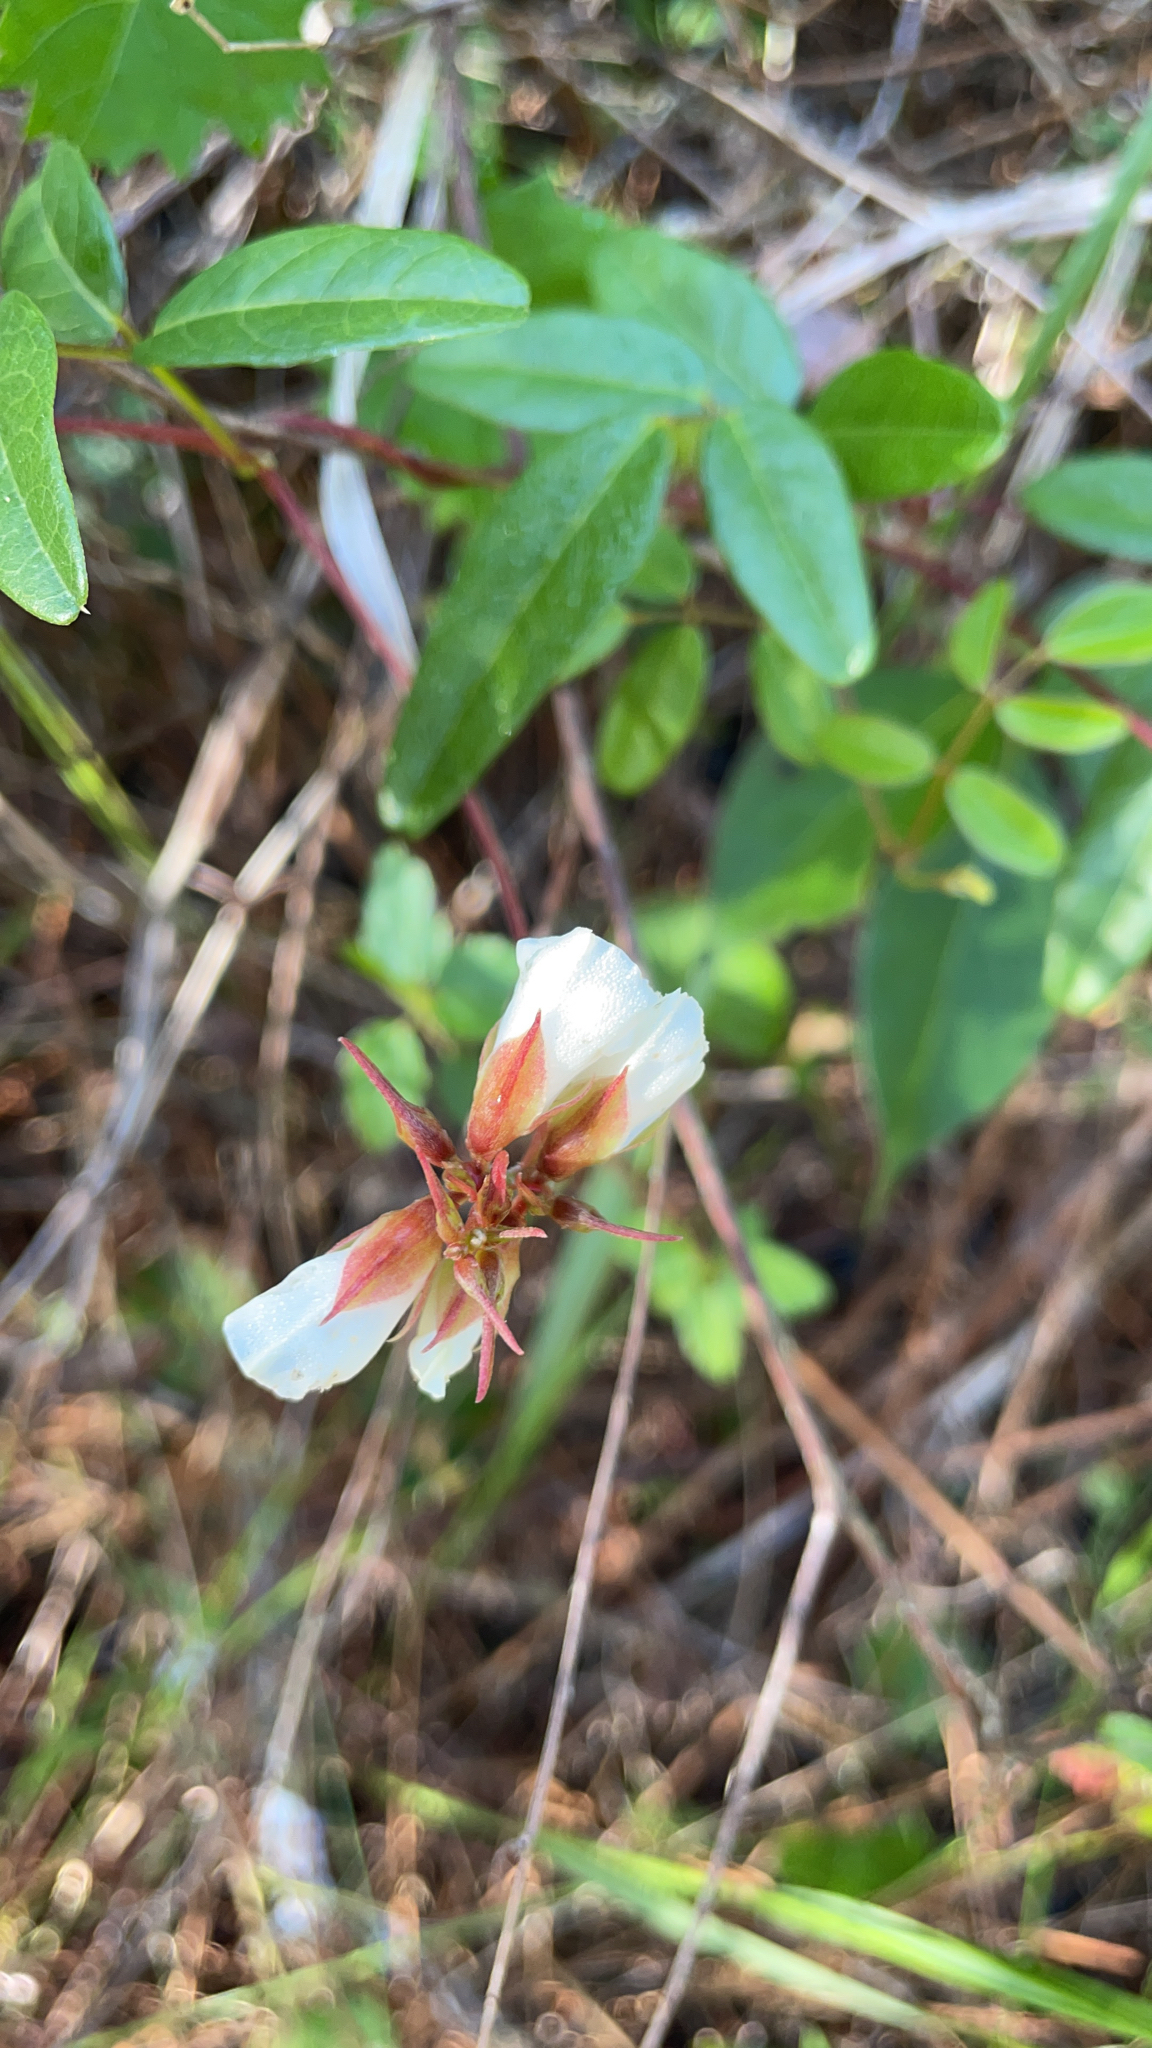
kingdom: Plantae
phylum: Tracheophyta
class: Magnoliopsida
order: Fabales
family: Fabaceae
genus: Galactia
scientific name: Galactia elliottii
